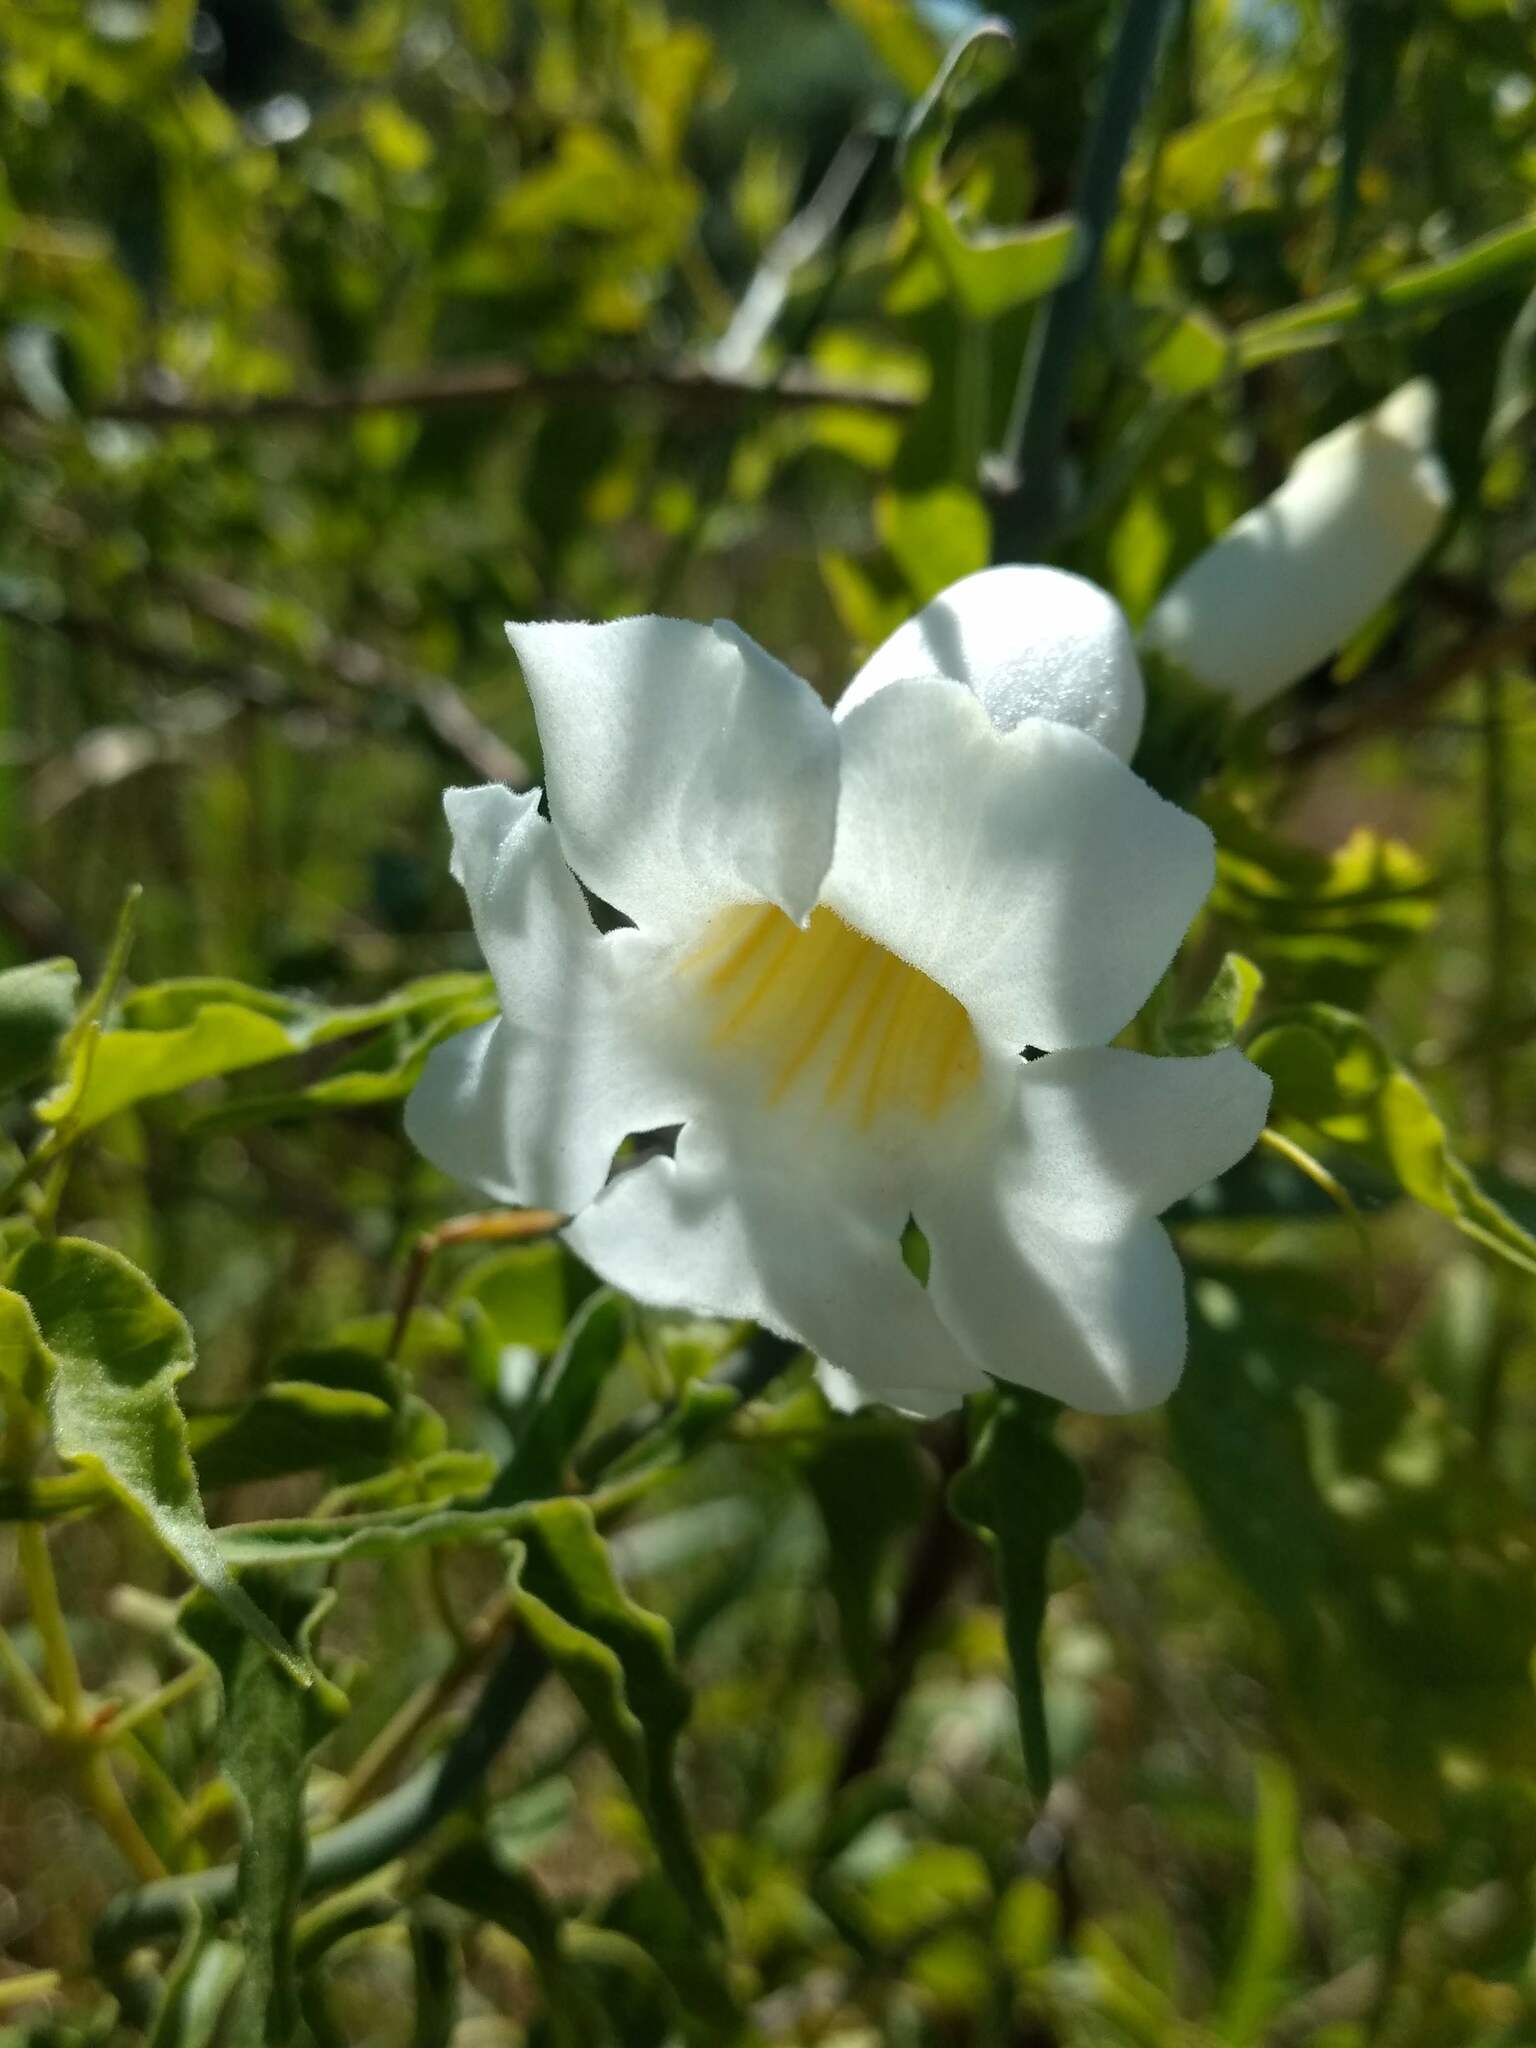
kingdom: Plantae
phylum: Tracheophyta
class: Magnoliopsida
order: Lamiales
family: Bignoniaceae
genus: Amphilophium
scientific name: Amphilophium carolinae
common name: Monkey's-comb
